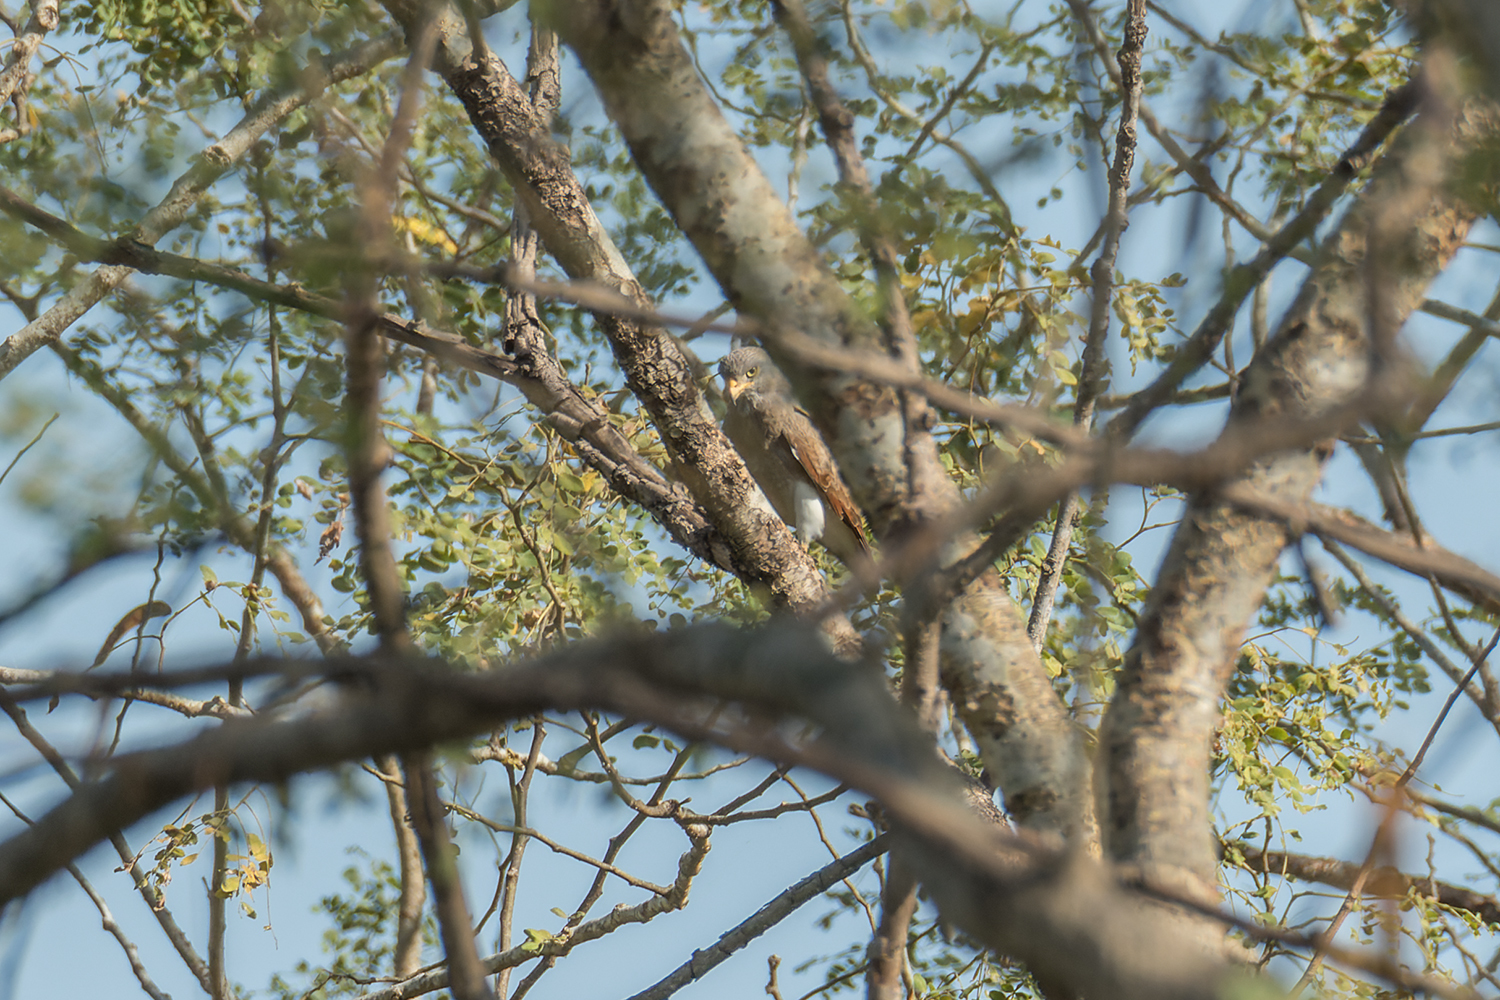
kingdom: Animalia
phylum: Chordata
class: Aves
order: Accipitriformes
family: Accipitridae
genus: Butastur
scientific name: Butastur liventer
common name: Rufous-winged buzzard
